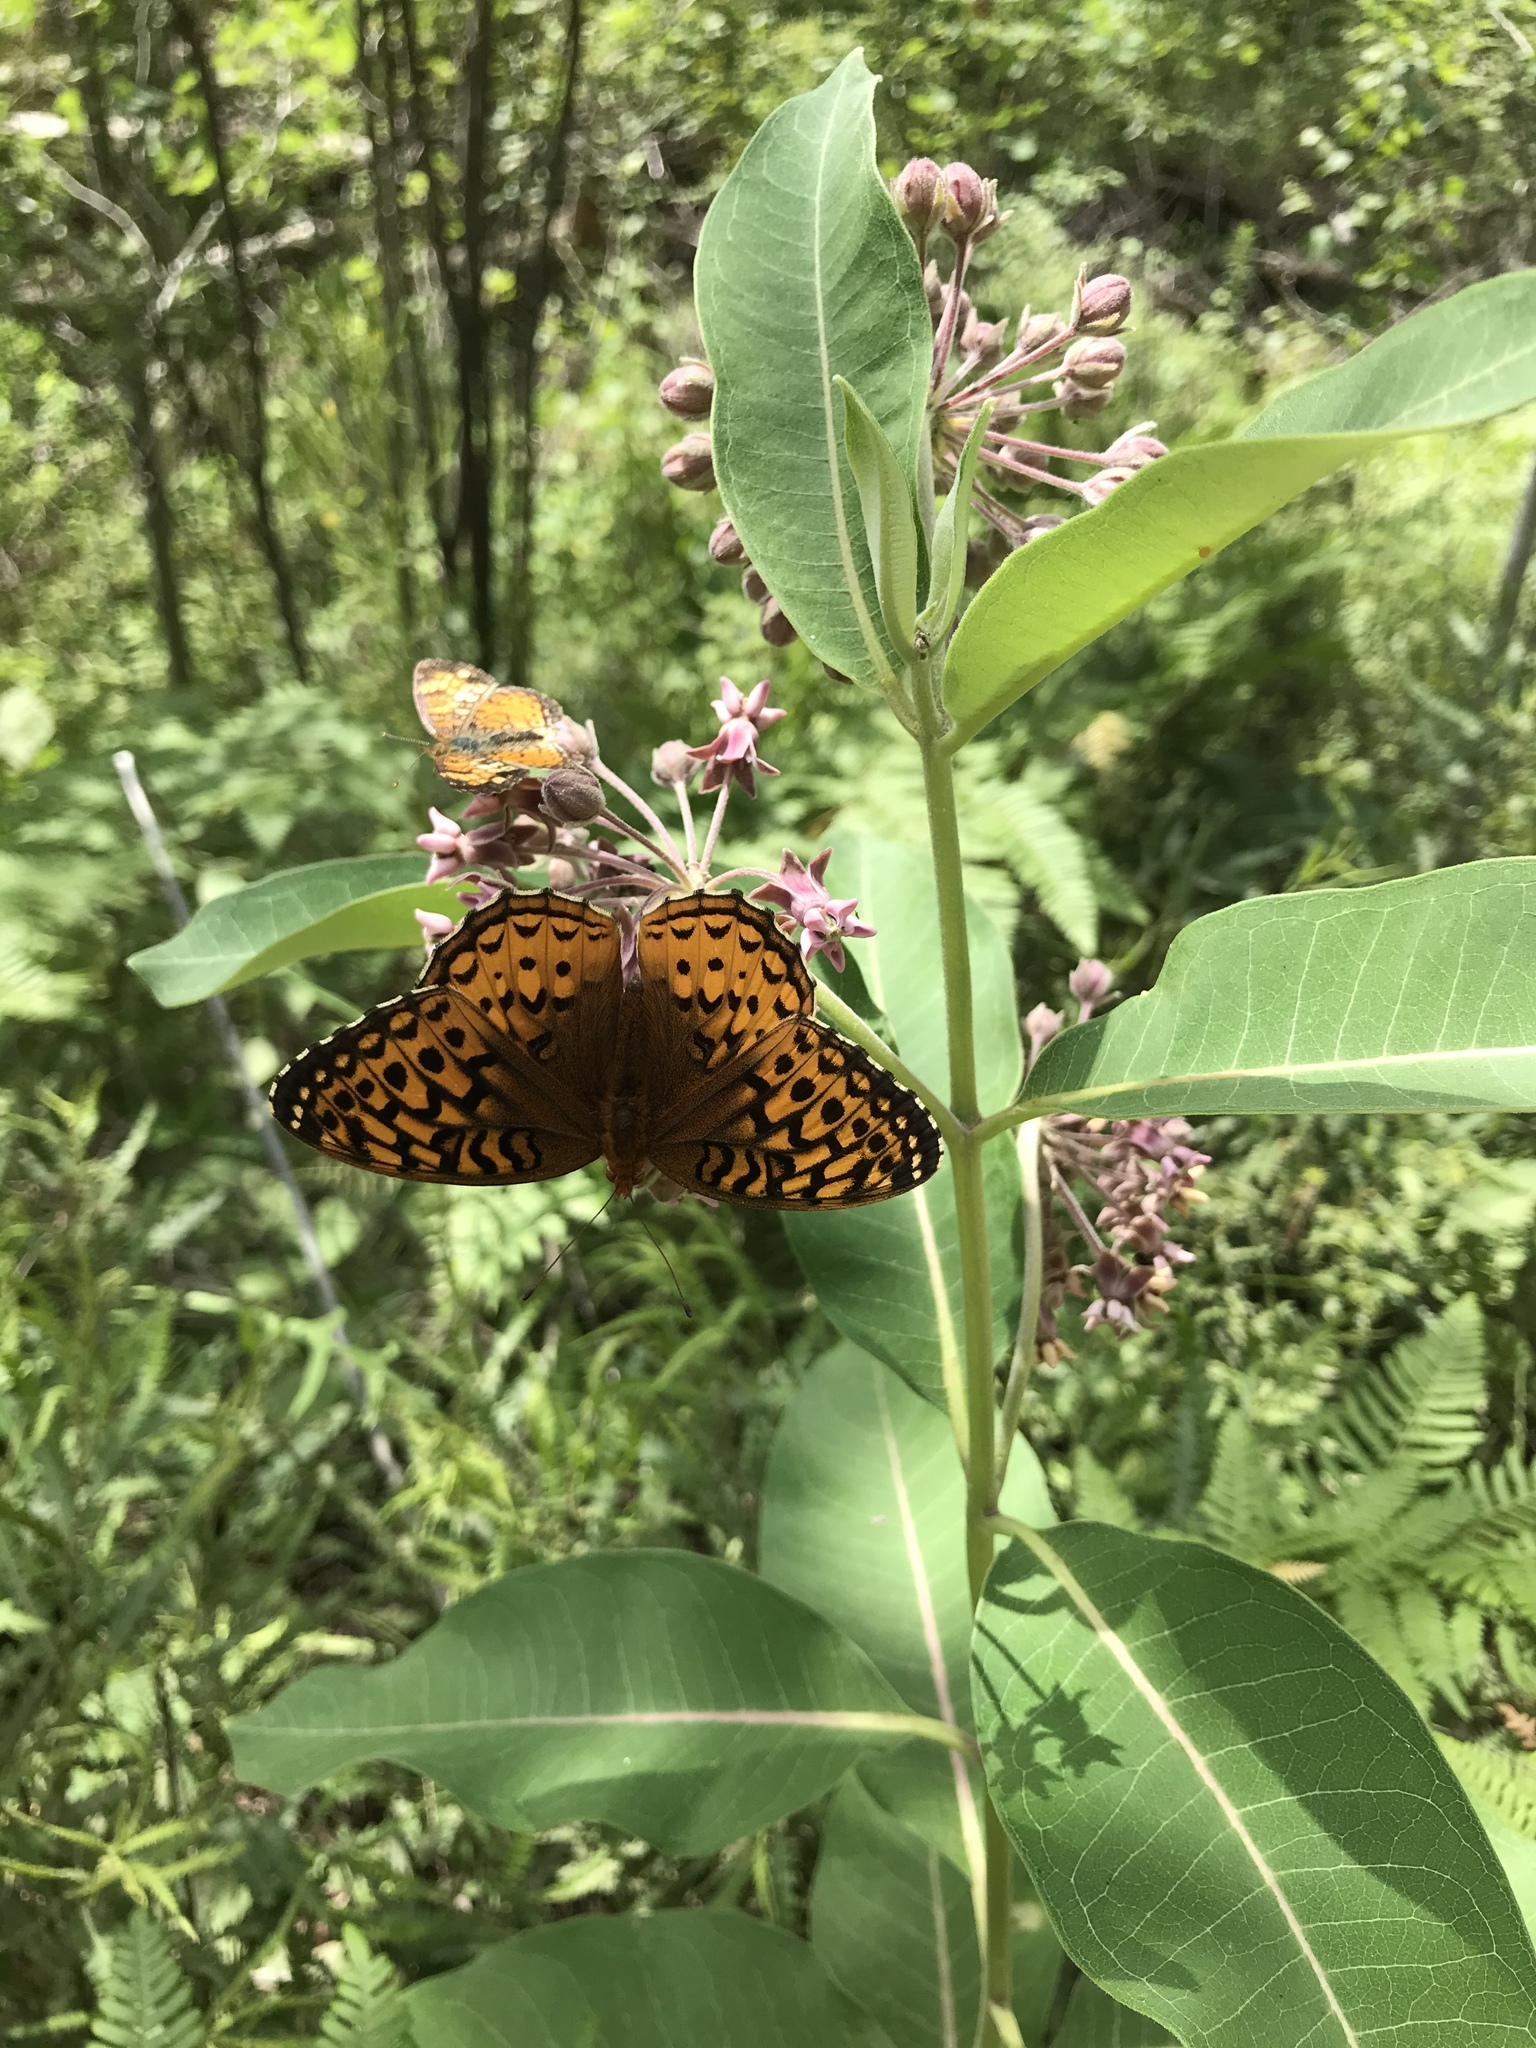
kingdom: Animalia
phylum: Arthropoda
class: Insecta
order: Lepidoptera
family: Nymphalidae
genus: Speyeria
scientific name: Speyeria cybele
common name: Great spangled fritillary
